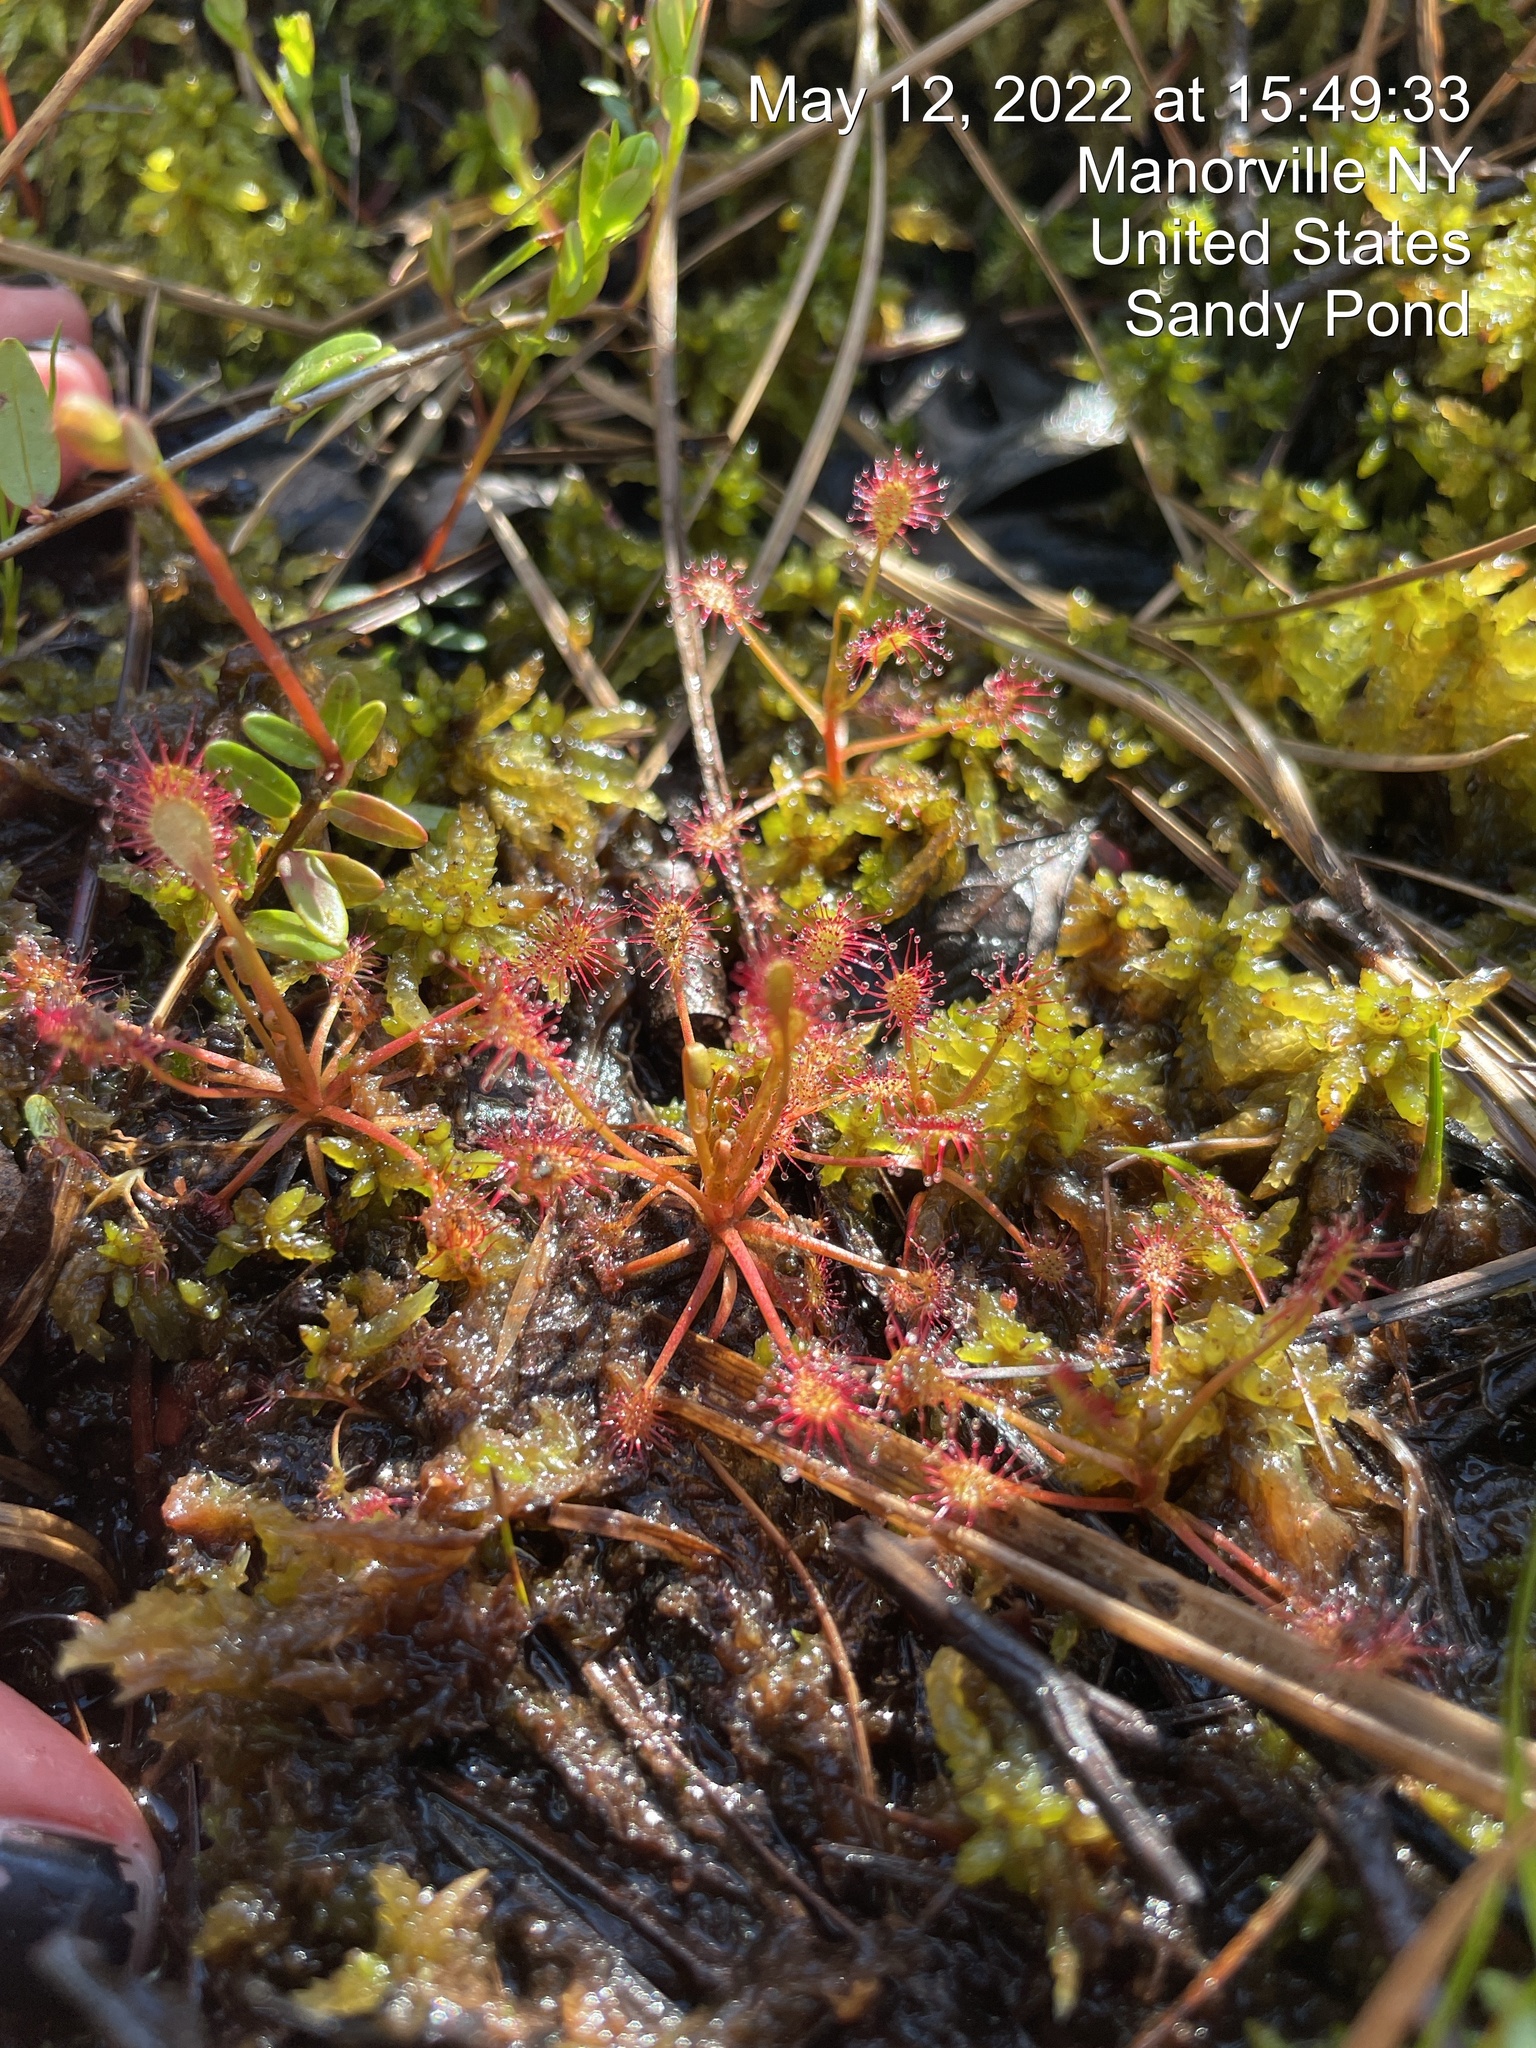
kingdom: Plantae
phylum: Tracheophyta
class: Magnoliopsida
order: Caryophyllales
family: Droseraceae
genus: Drosera
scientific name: Drosera intermedia
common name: Oblong-leaved sundew
